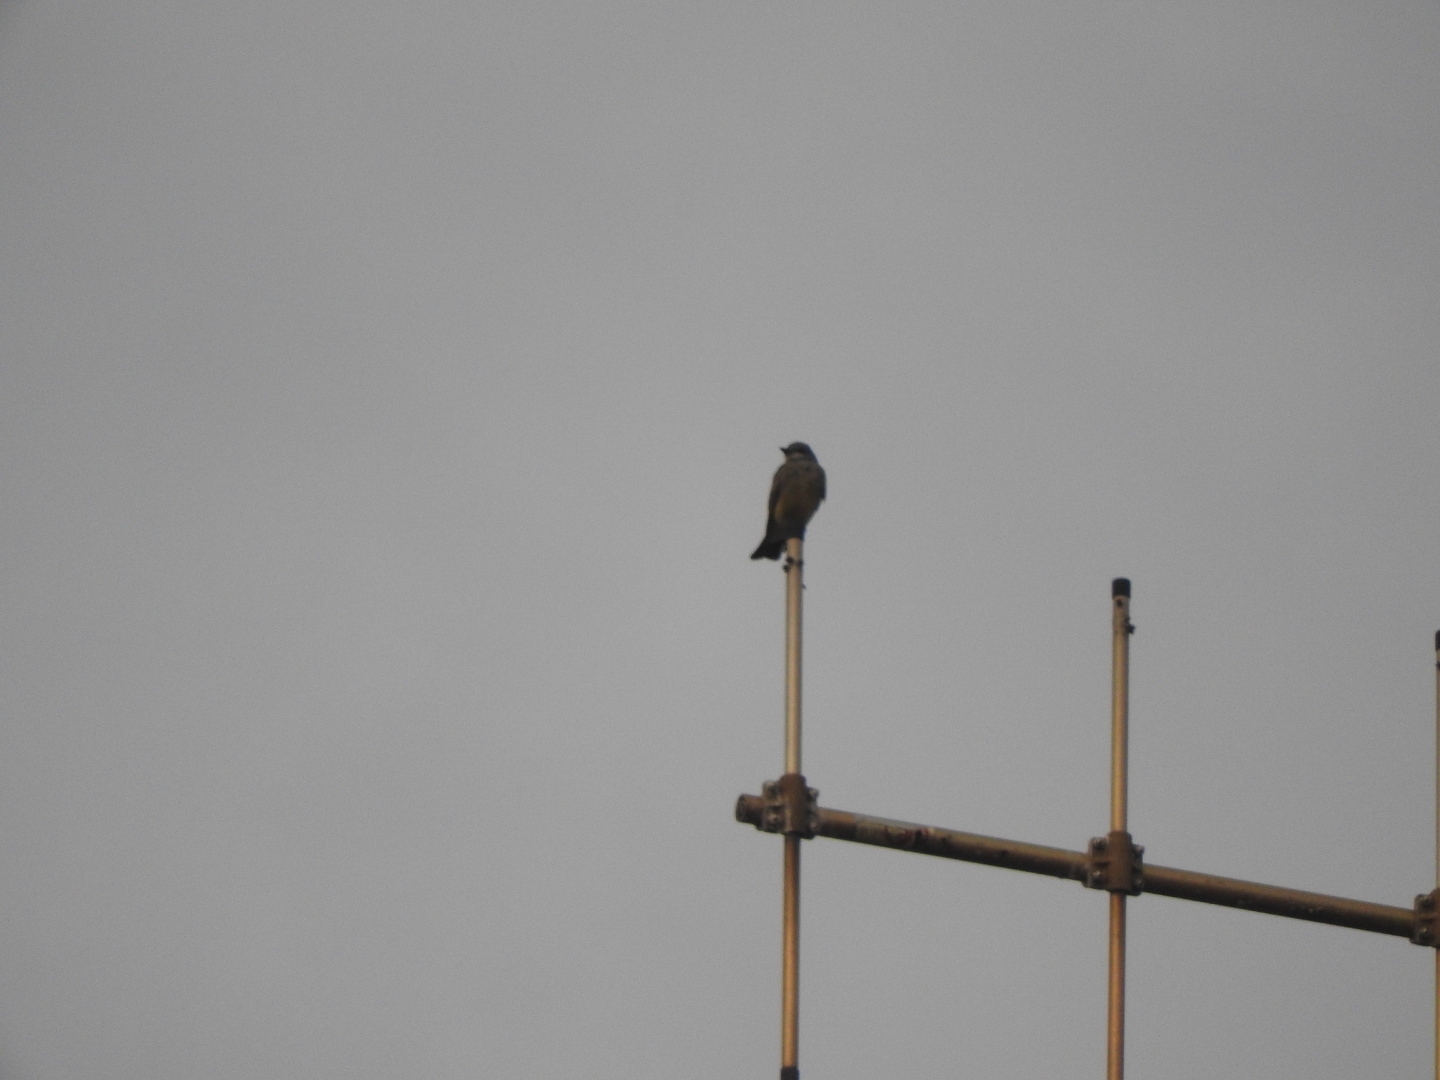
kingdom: Animalia
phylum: Chordata
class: Aves
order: Passeriformes
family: Tyrannidae
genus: Tyrannus
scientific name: Tyrannus vociferans
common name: Cassin's kingbird
